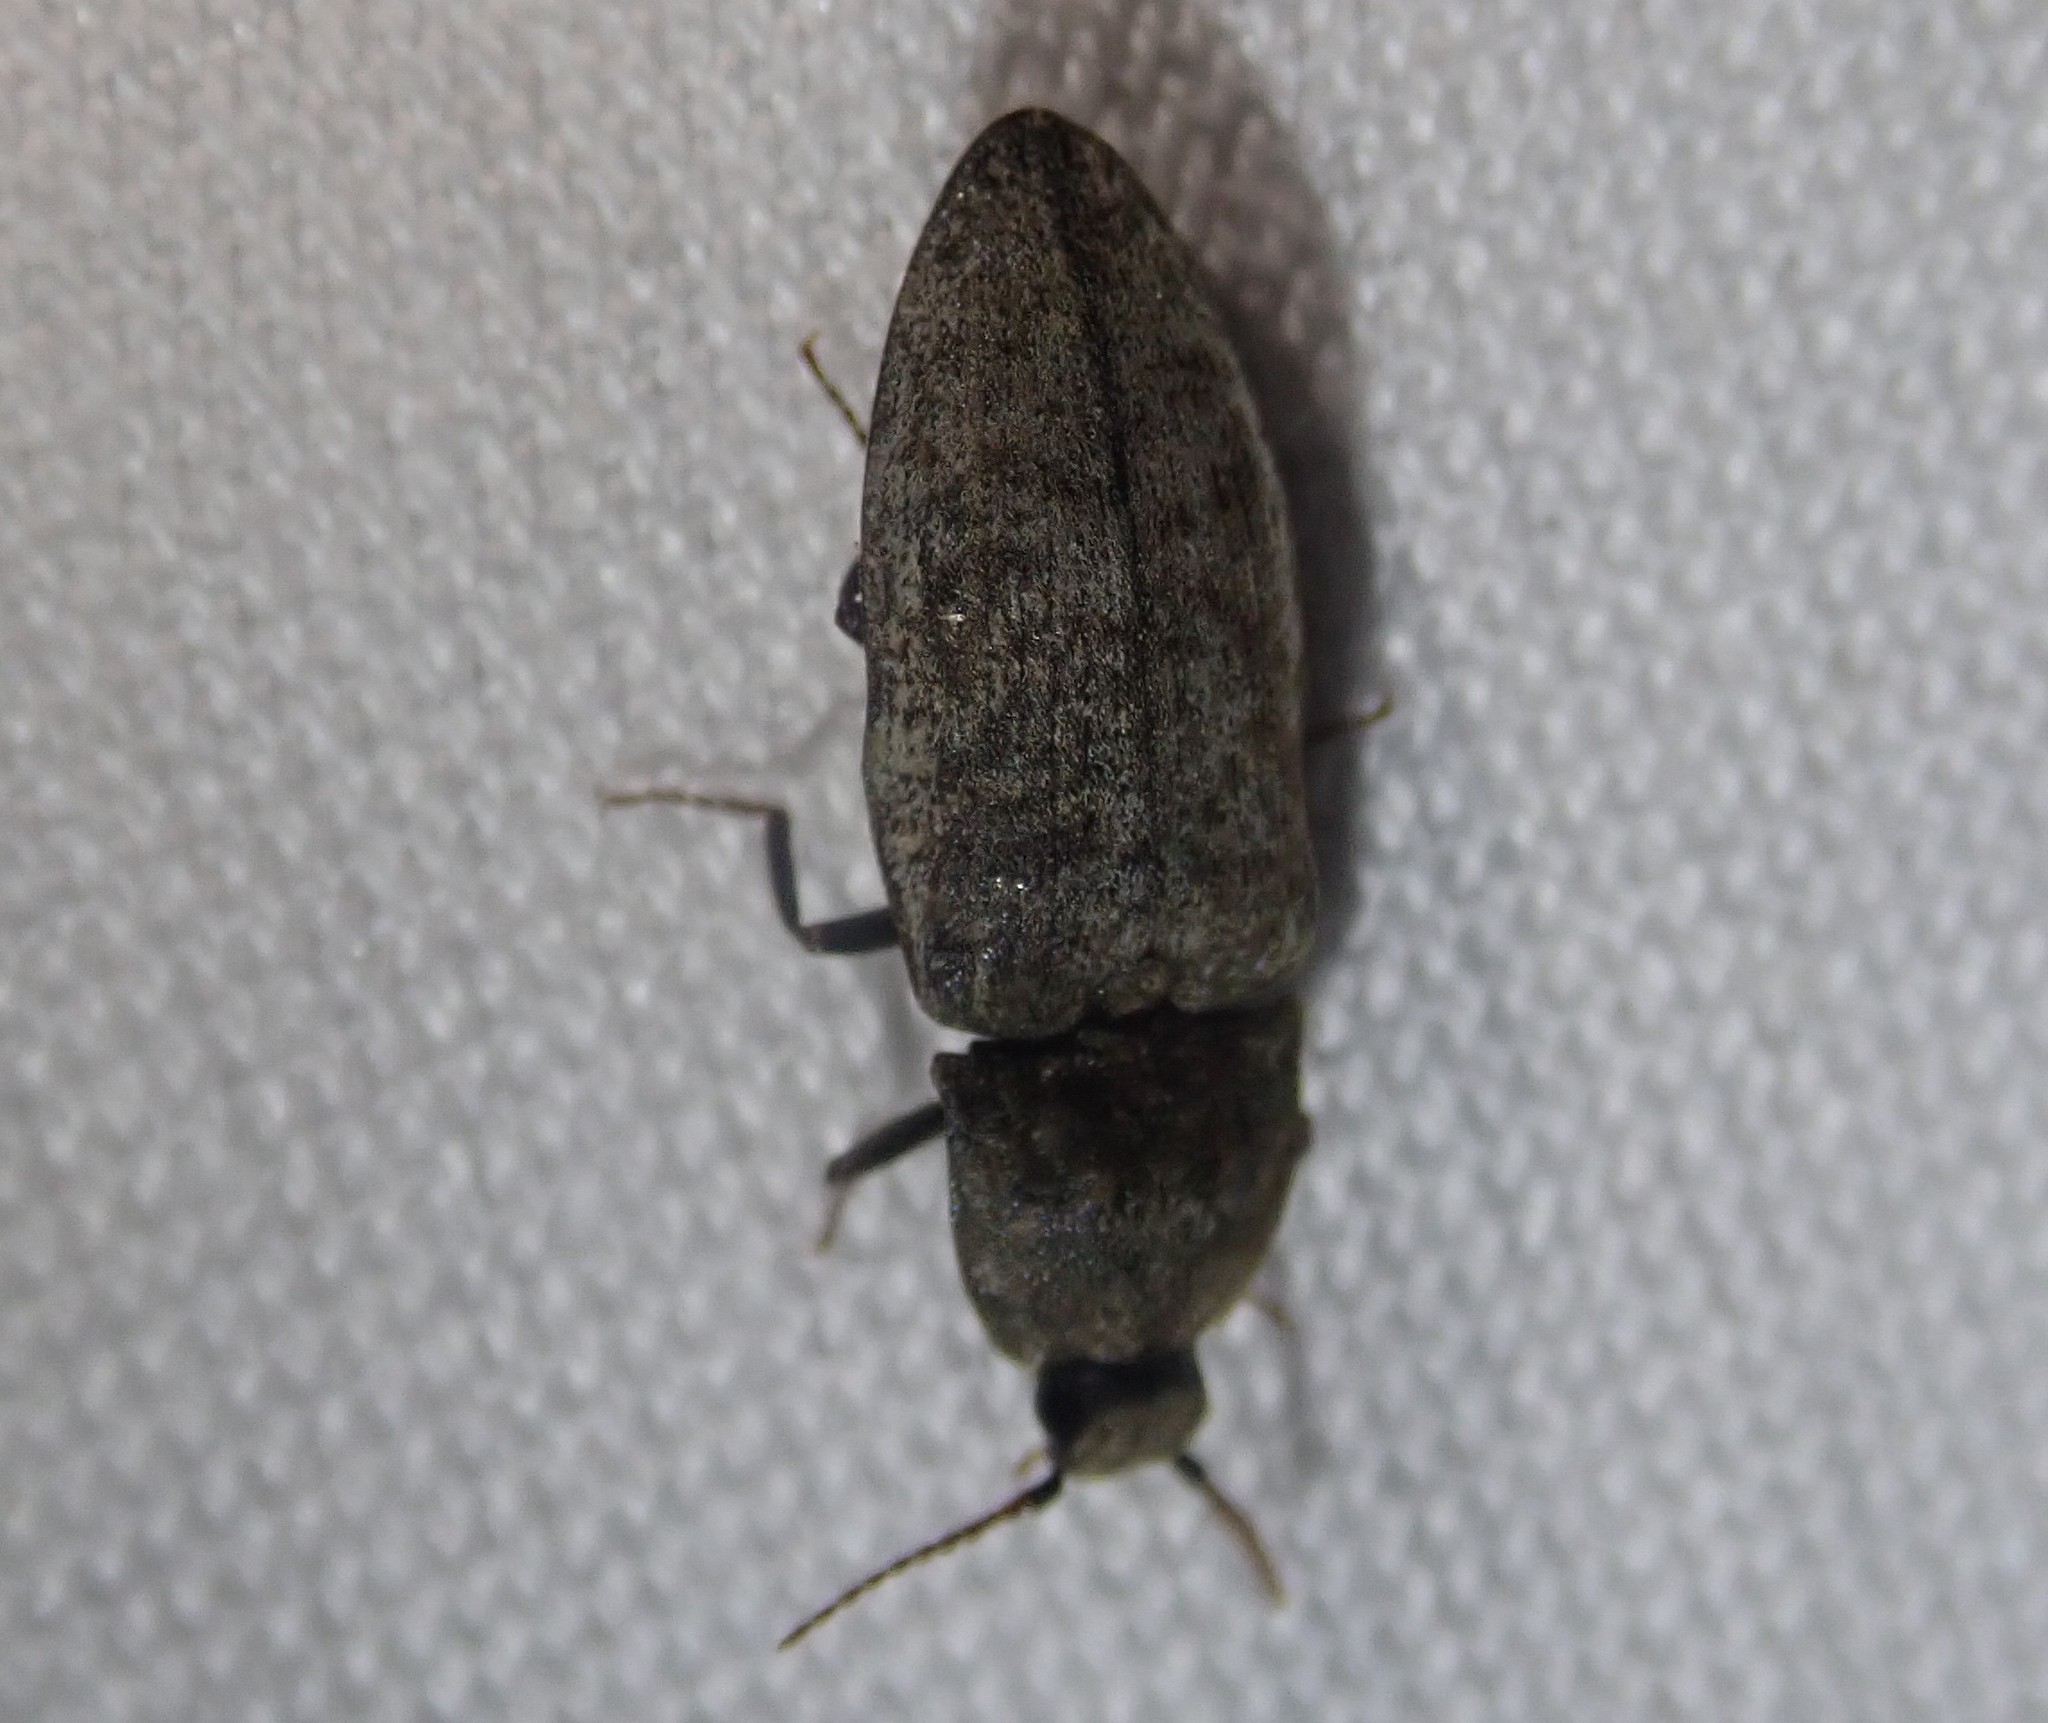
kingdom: Animalia
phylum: Arthropoda
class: Insecta
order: Coleoptera
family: Elateridae
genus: Agrypnus
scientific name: Agrypnus murinus
